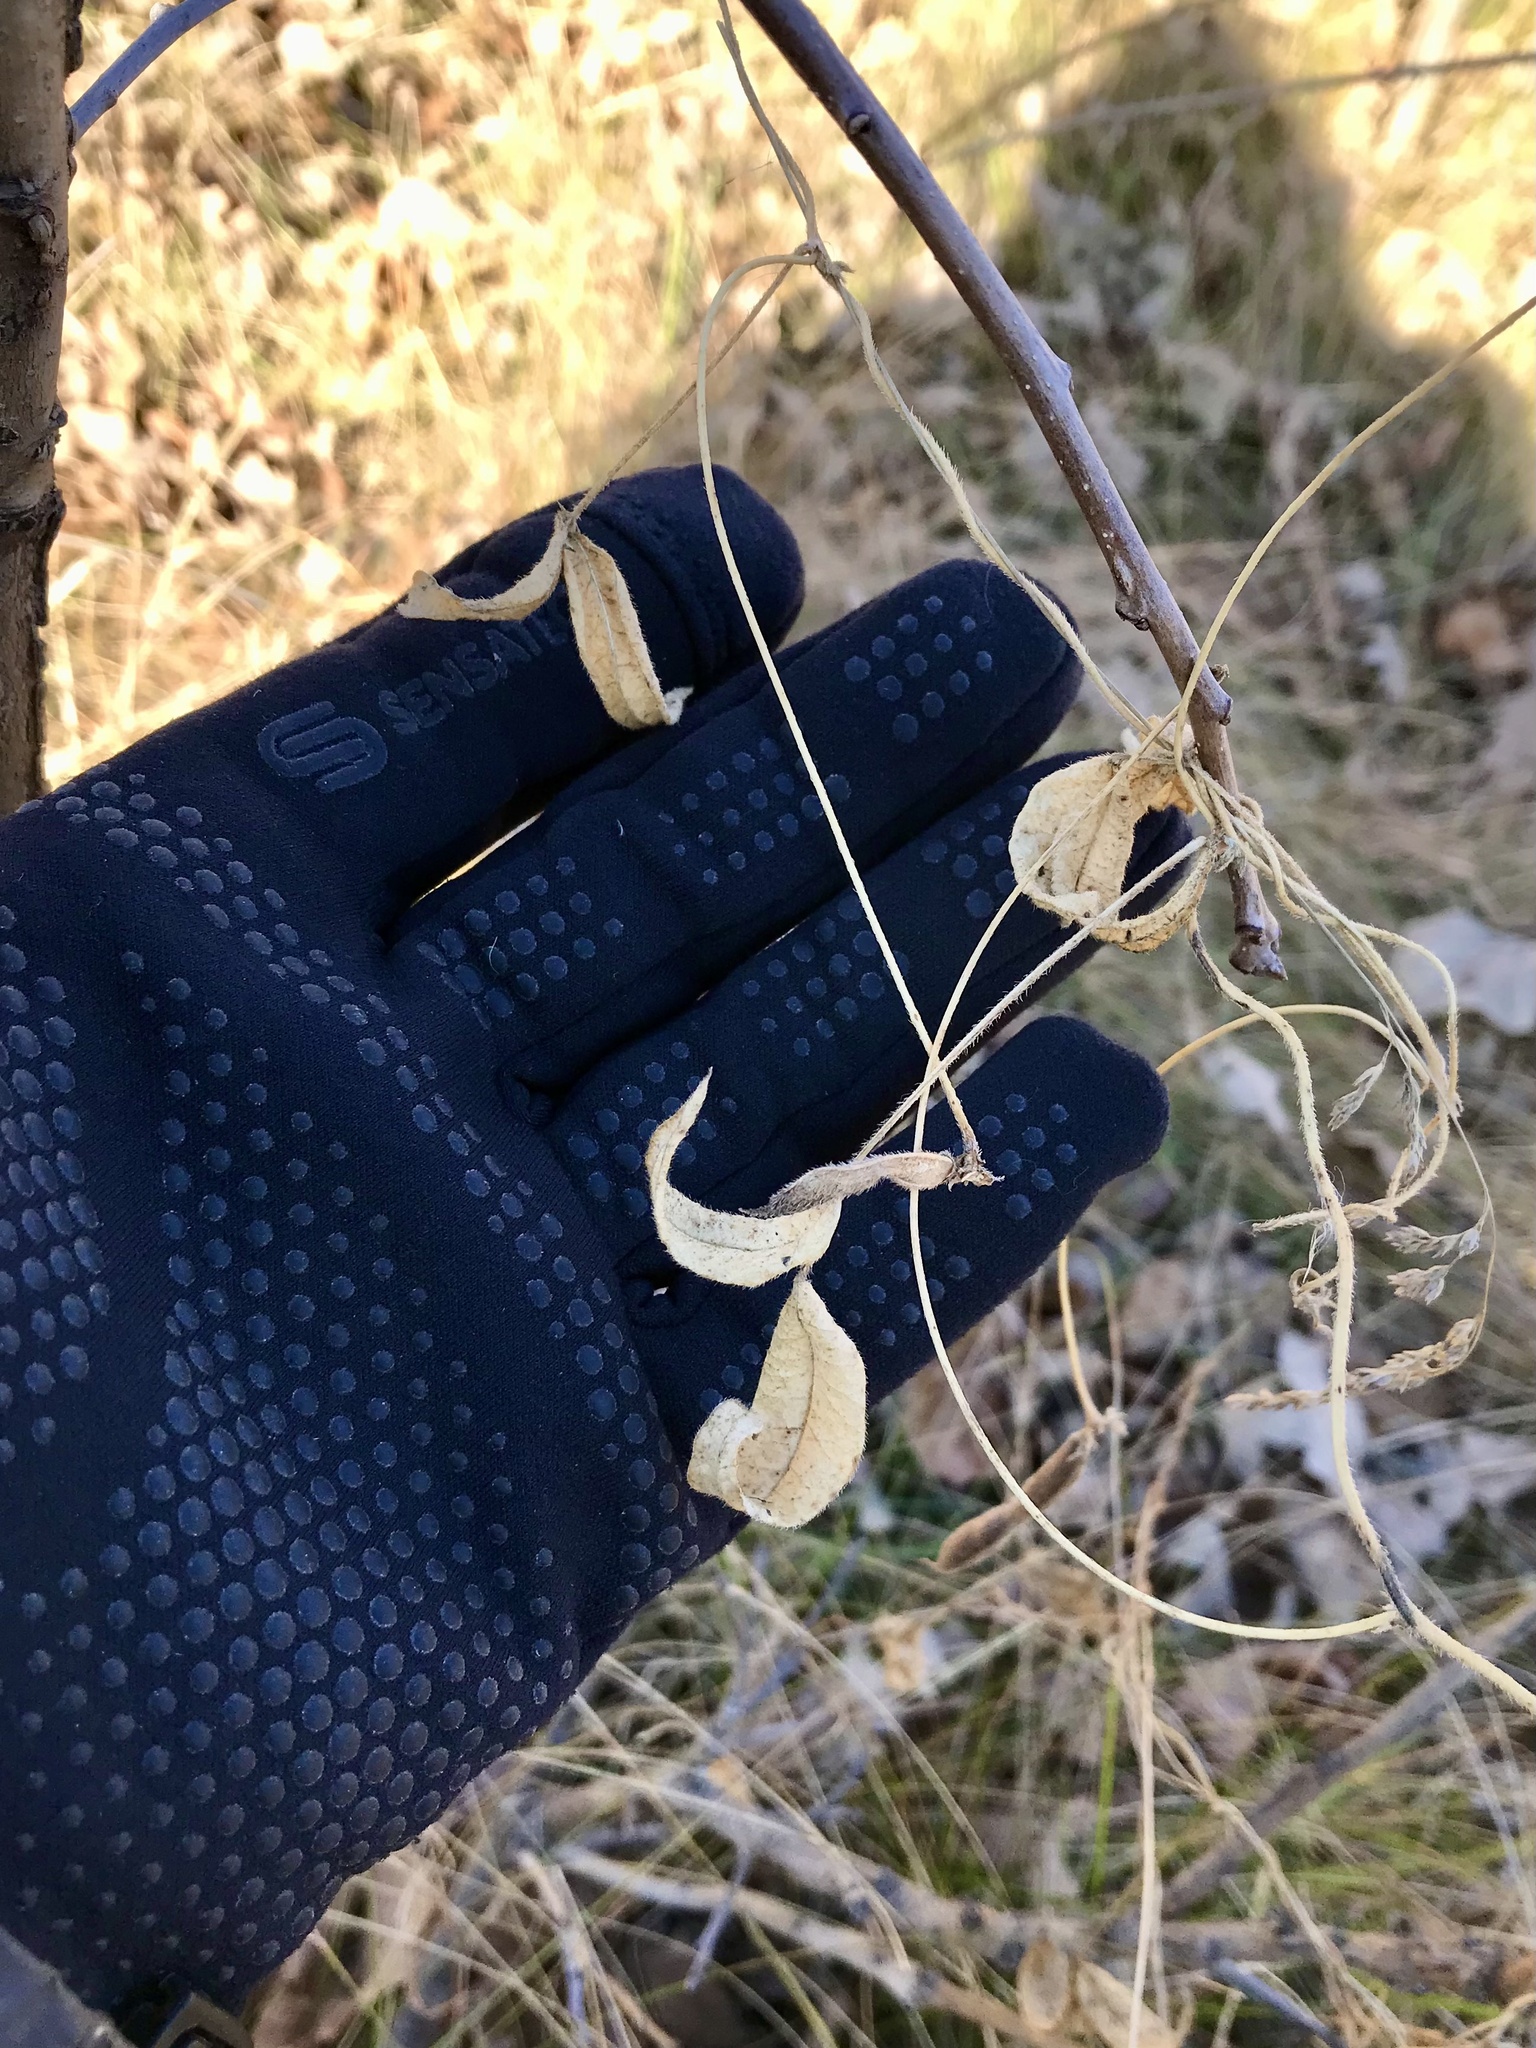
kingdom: Plantae
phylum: Tracheophyta
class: Magnoliopsida
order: Fabales
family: Fabaceae
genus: Strophostyles
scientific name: Strophostyles leiosperma
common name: Smooth-seed wild bean
